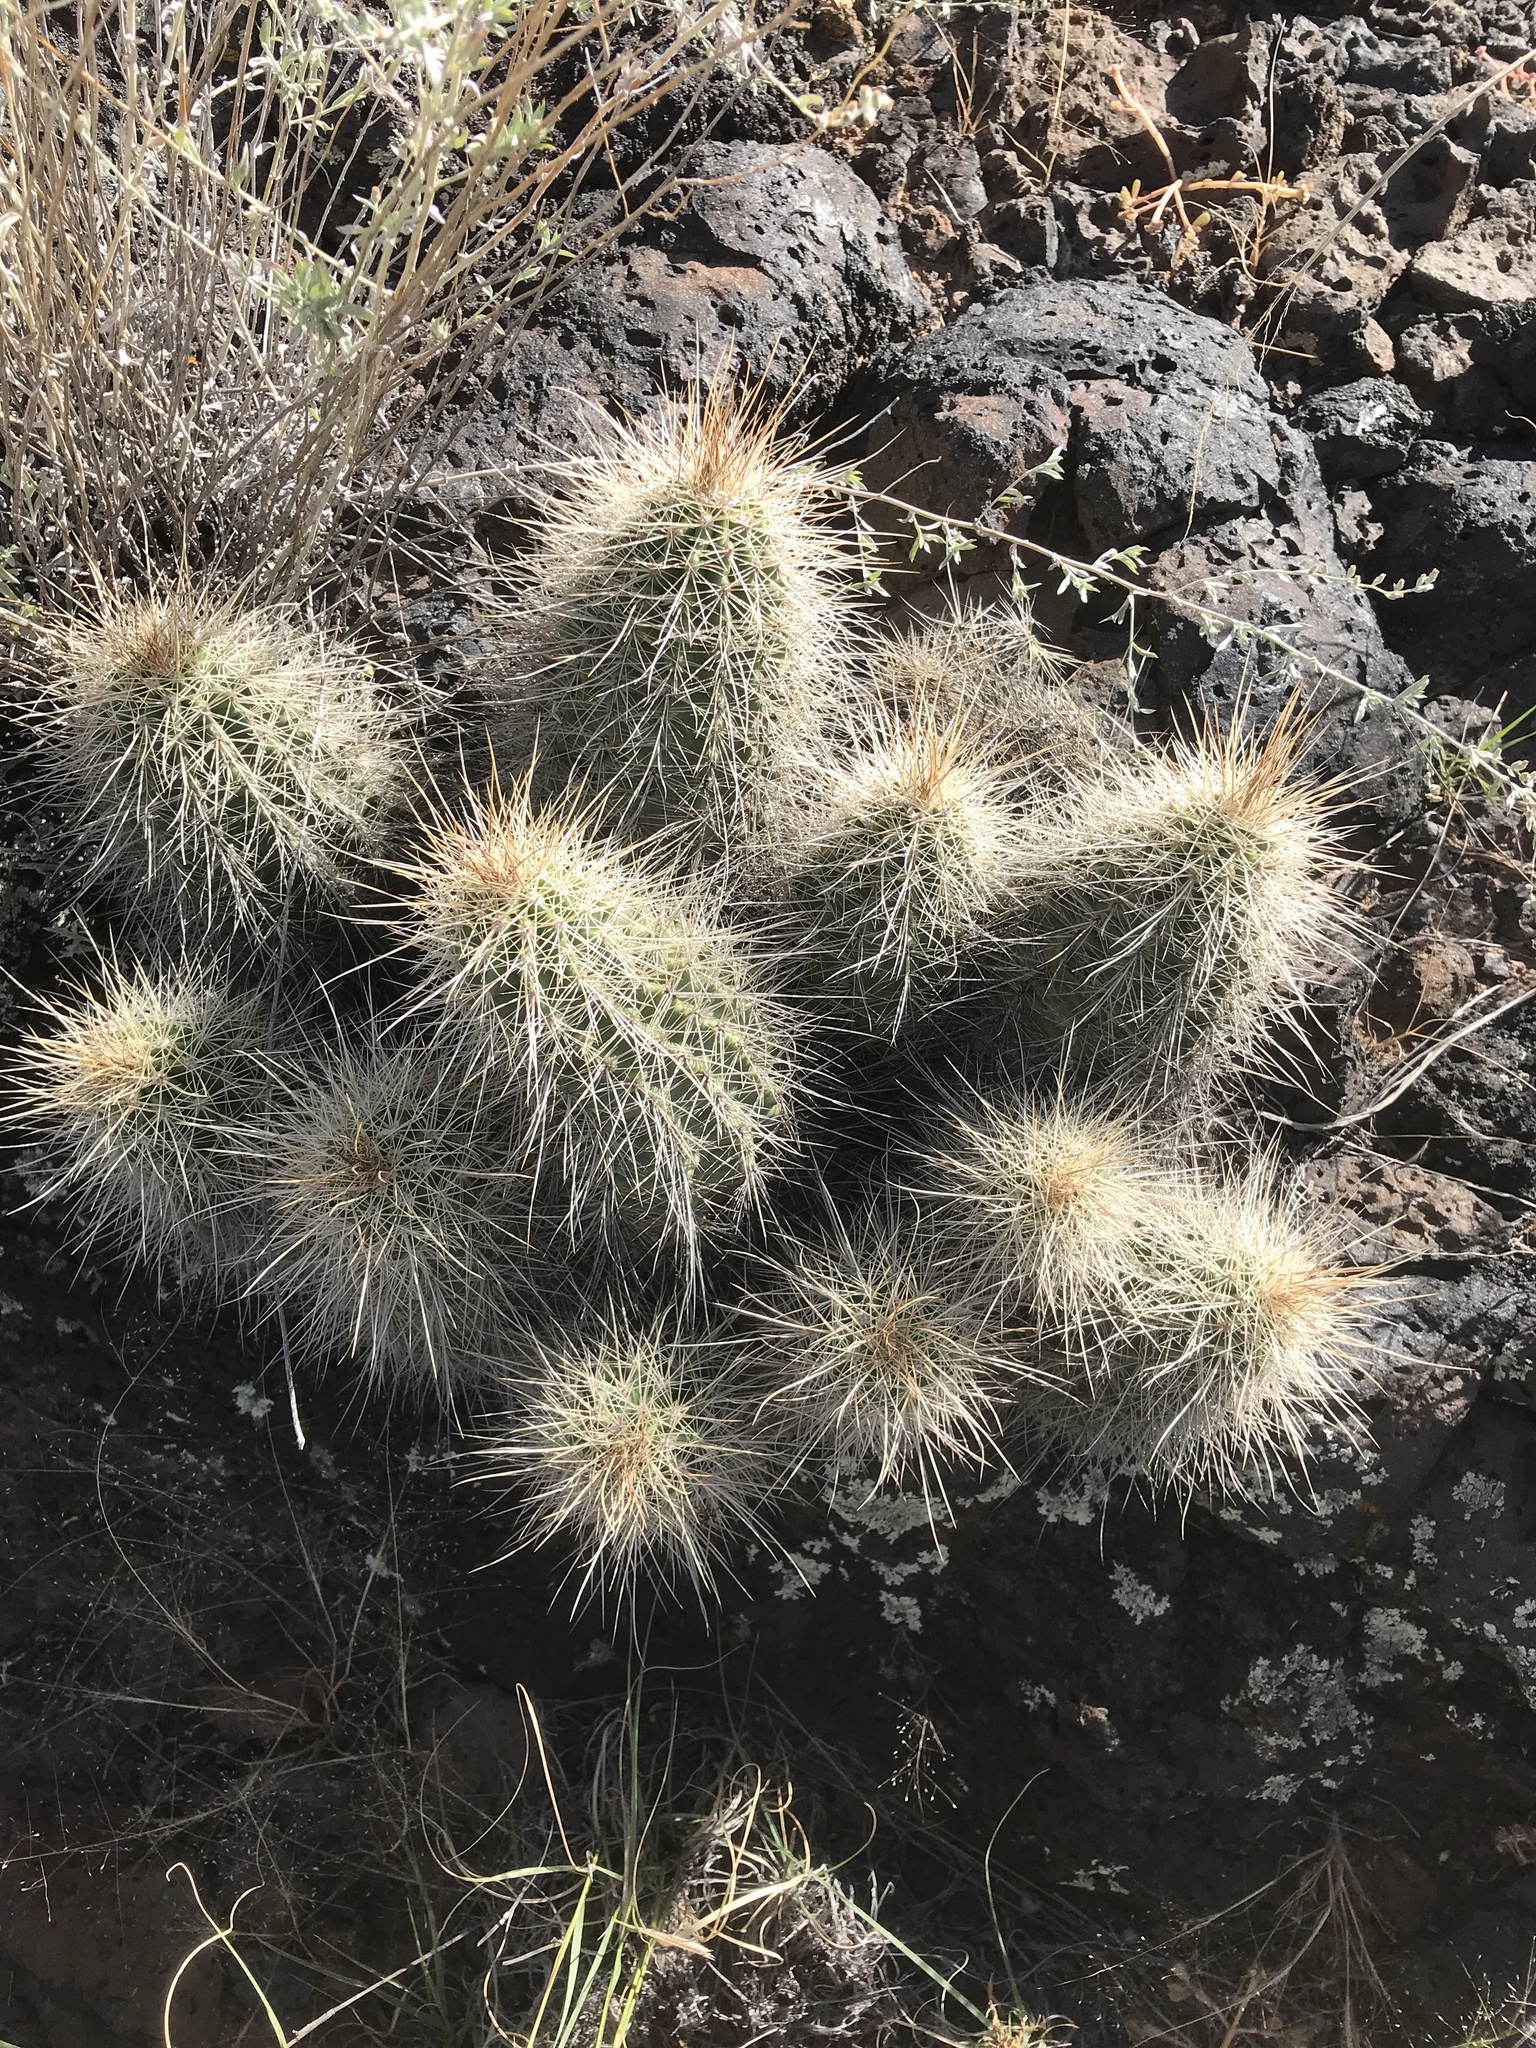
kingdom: Plantae
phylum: Tracheophyta
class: Magnoliopsida
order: Caryophyllales
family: Cactaceae
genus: Echinocereus
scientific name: Echinocereus coccineus
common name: Scarlet hedgehog cactus
